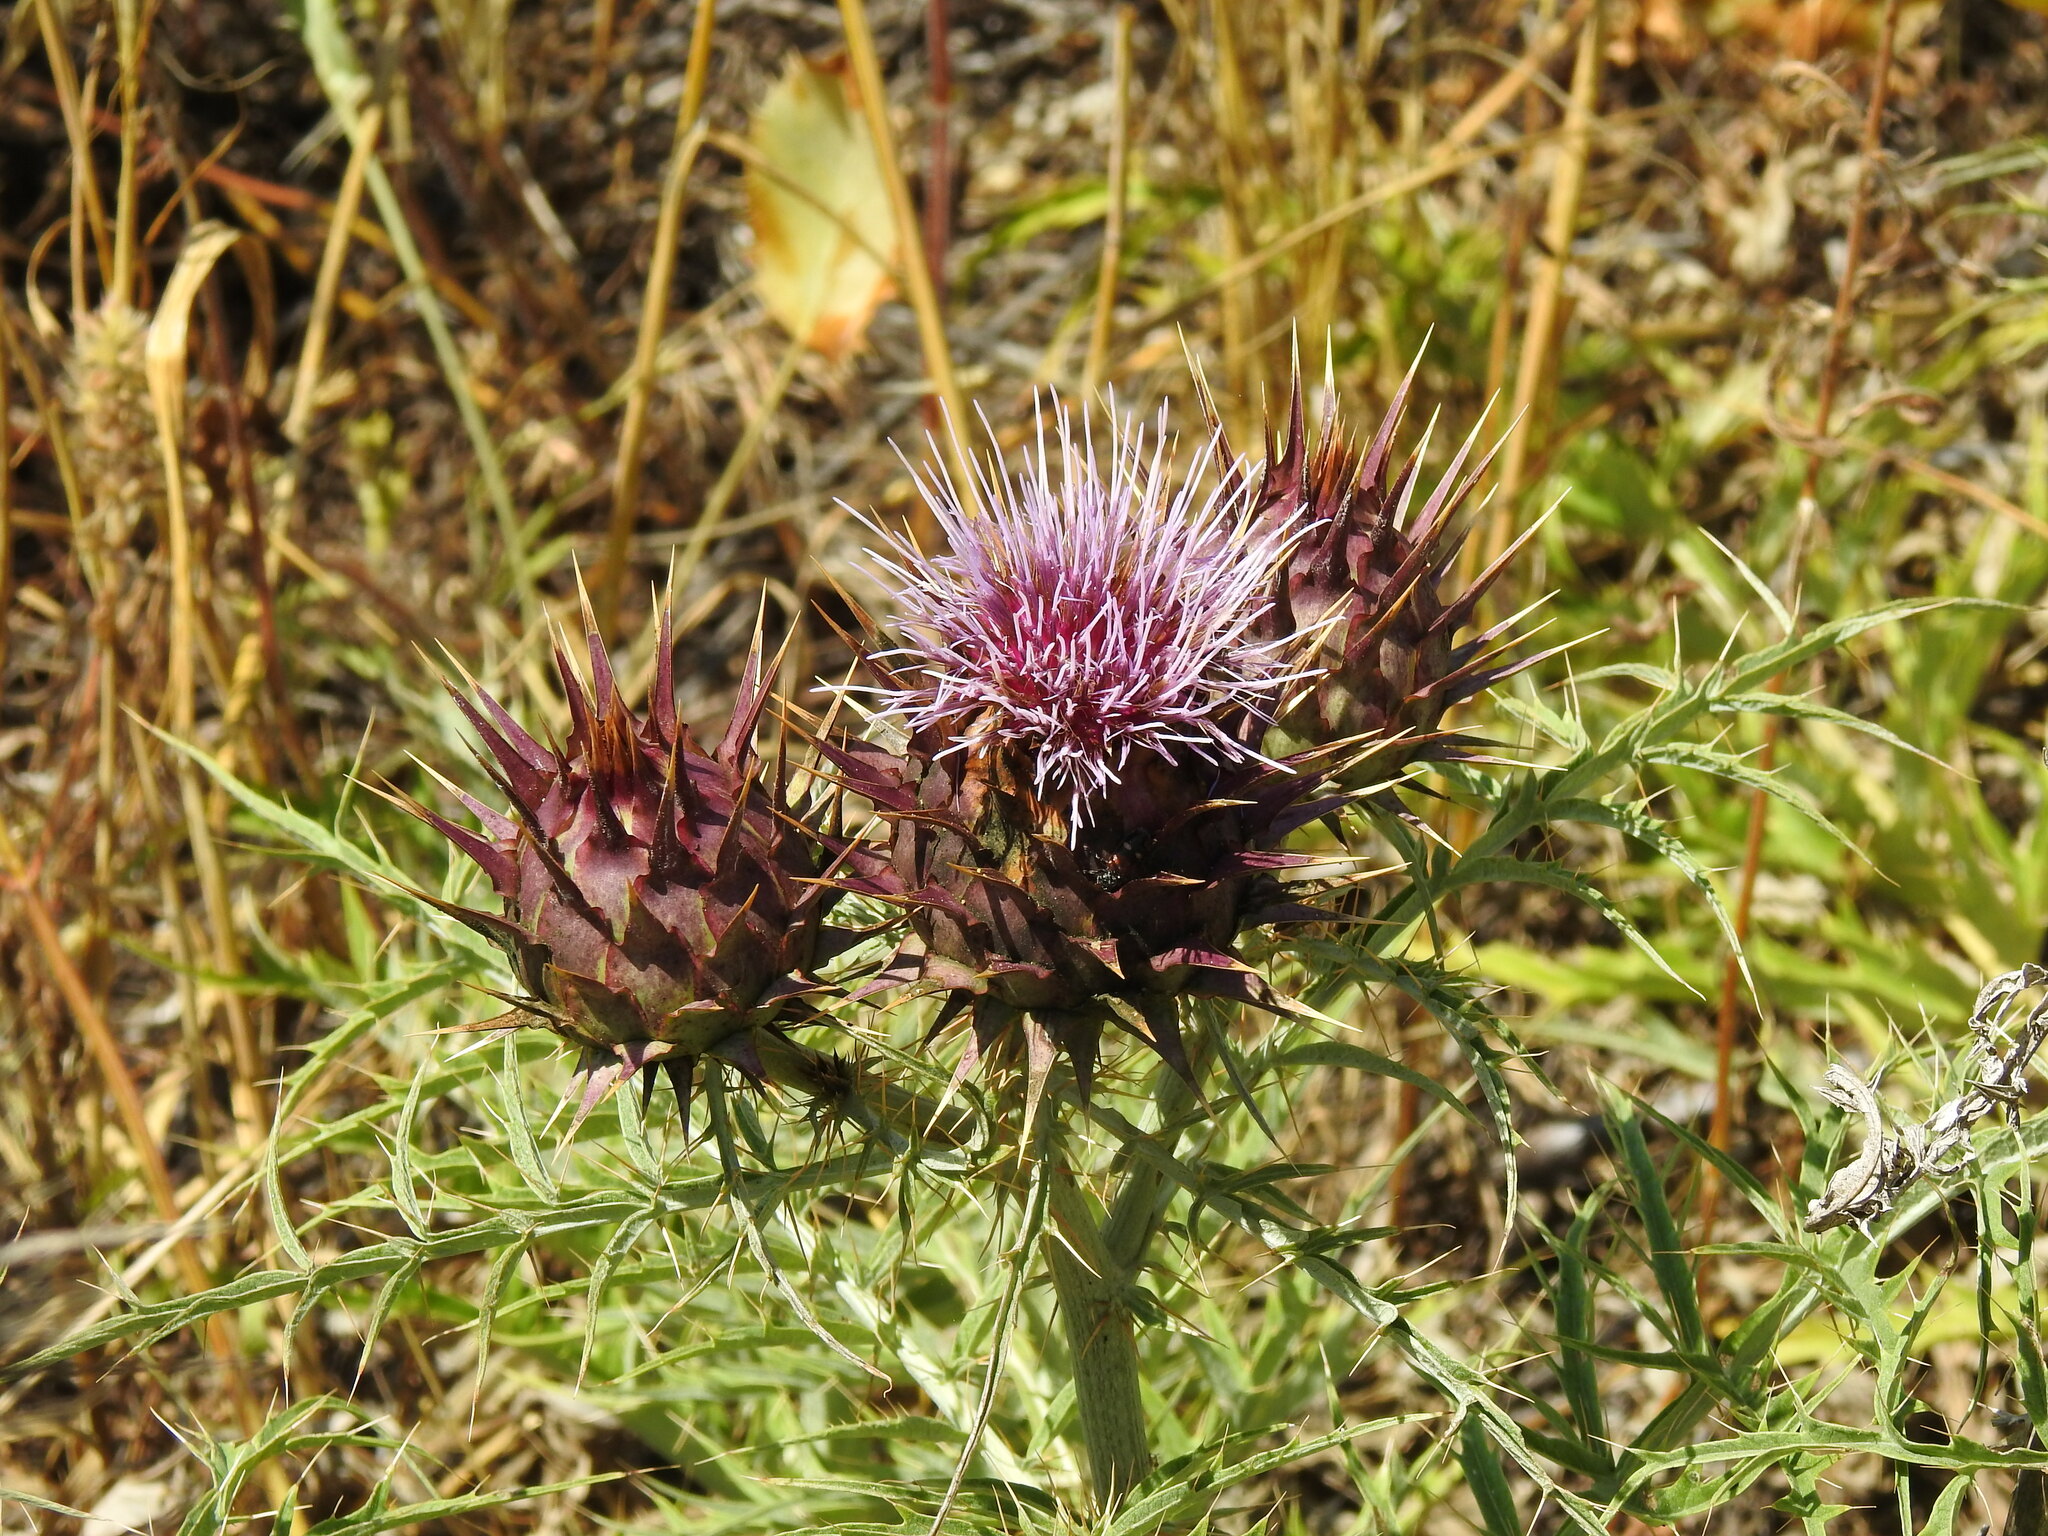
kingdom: Plantae
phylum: Tracheophyta
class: Magnoliopsida
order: Asterales
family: Asteraceae
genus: Cynara
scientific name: Cynara cardunculus
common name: Globe artichoke
